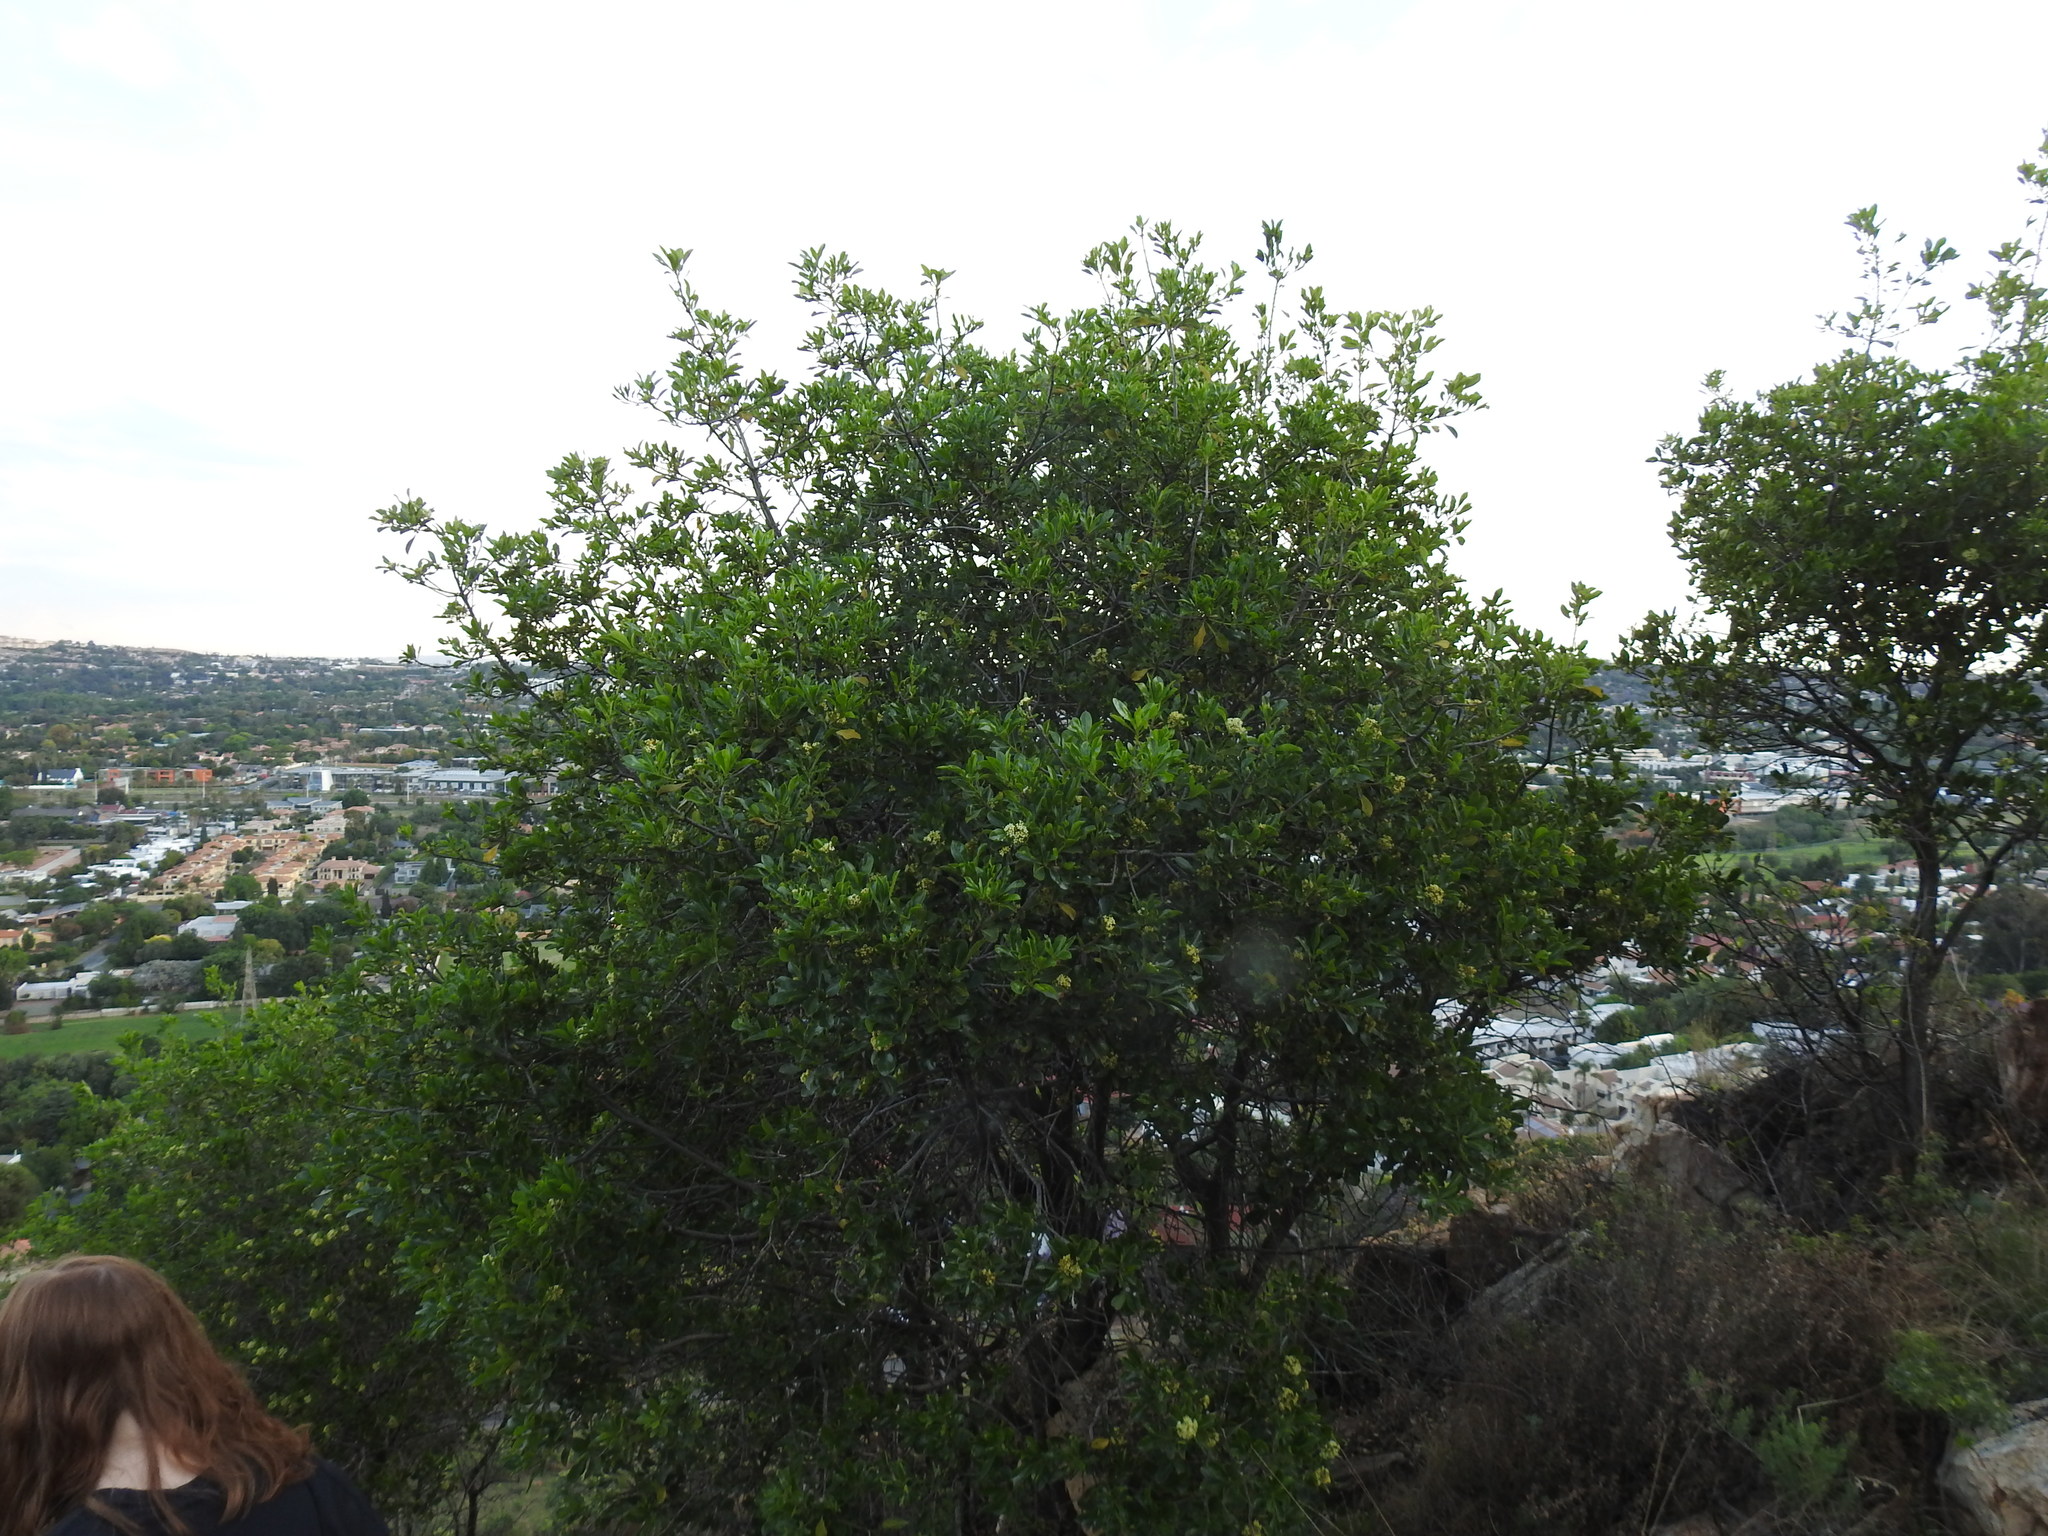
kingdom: Plantae
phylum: Tracheophyta
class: Magnoliopsida
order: Apiales
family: Pittosporaceae
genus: Pittosporum
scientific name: Pittosporum viridiflorum
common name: Cape cheesewood
